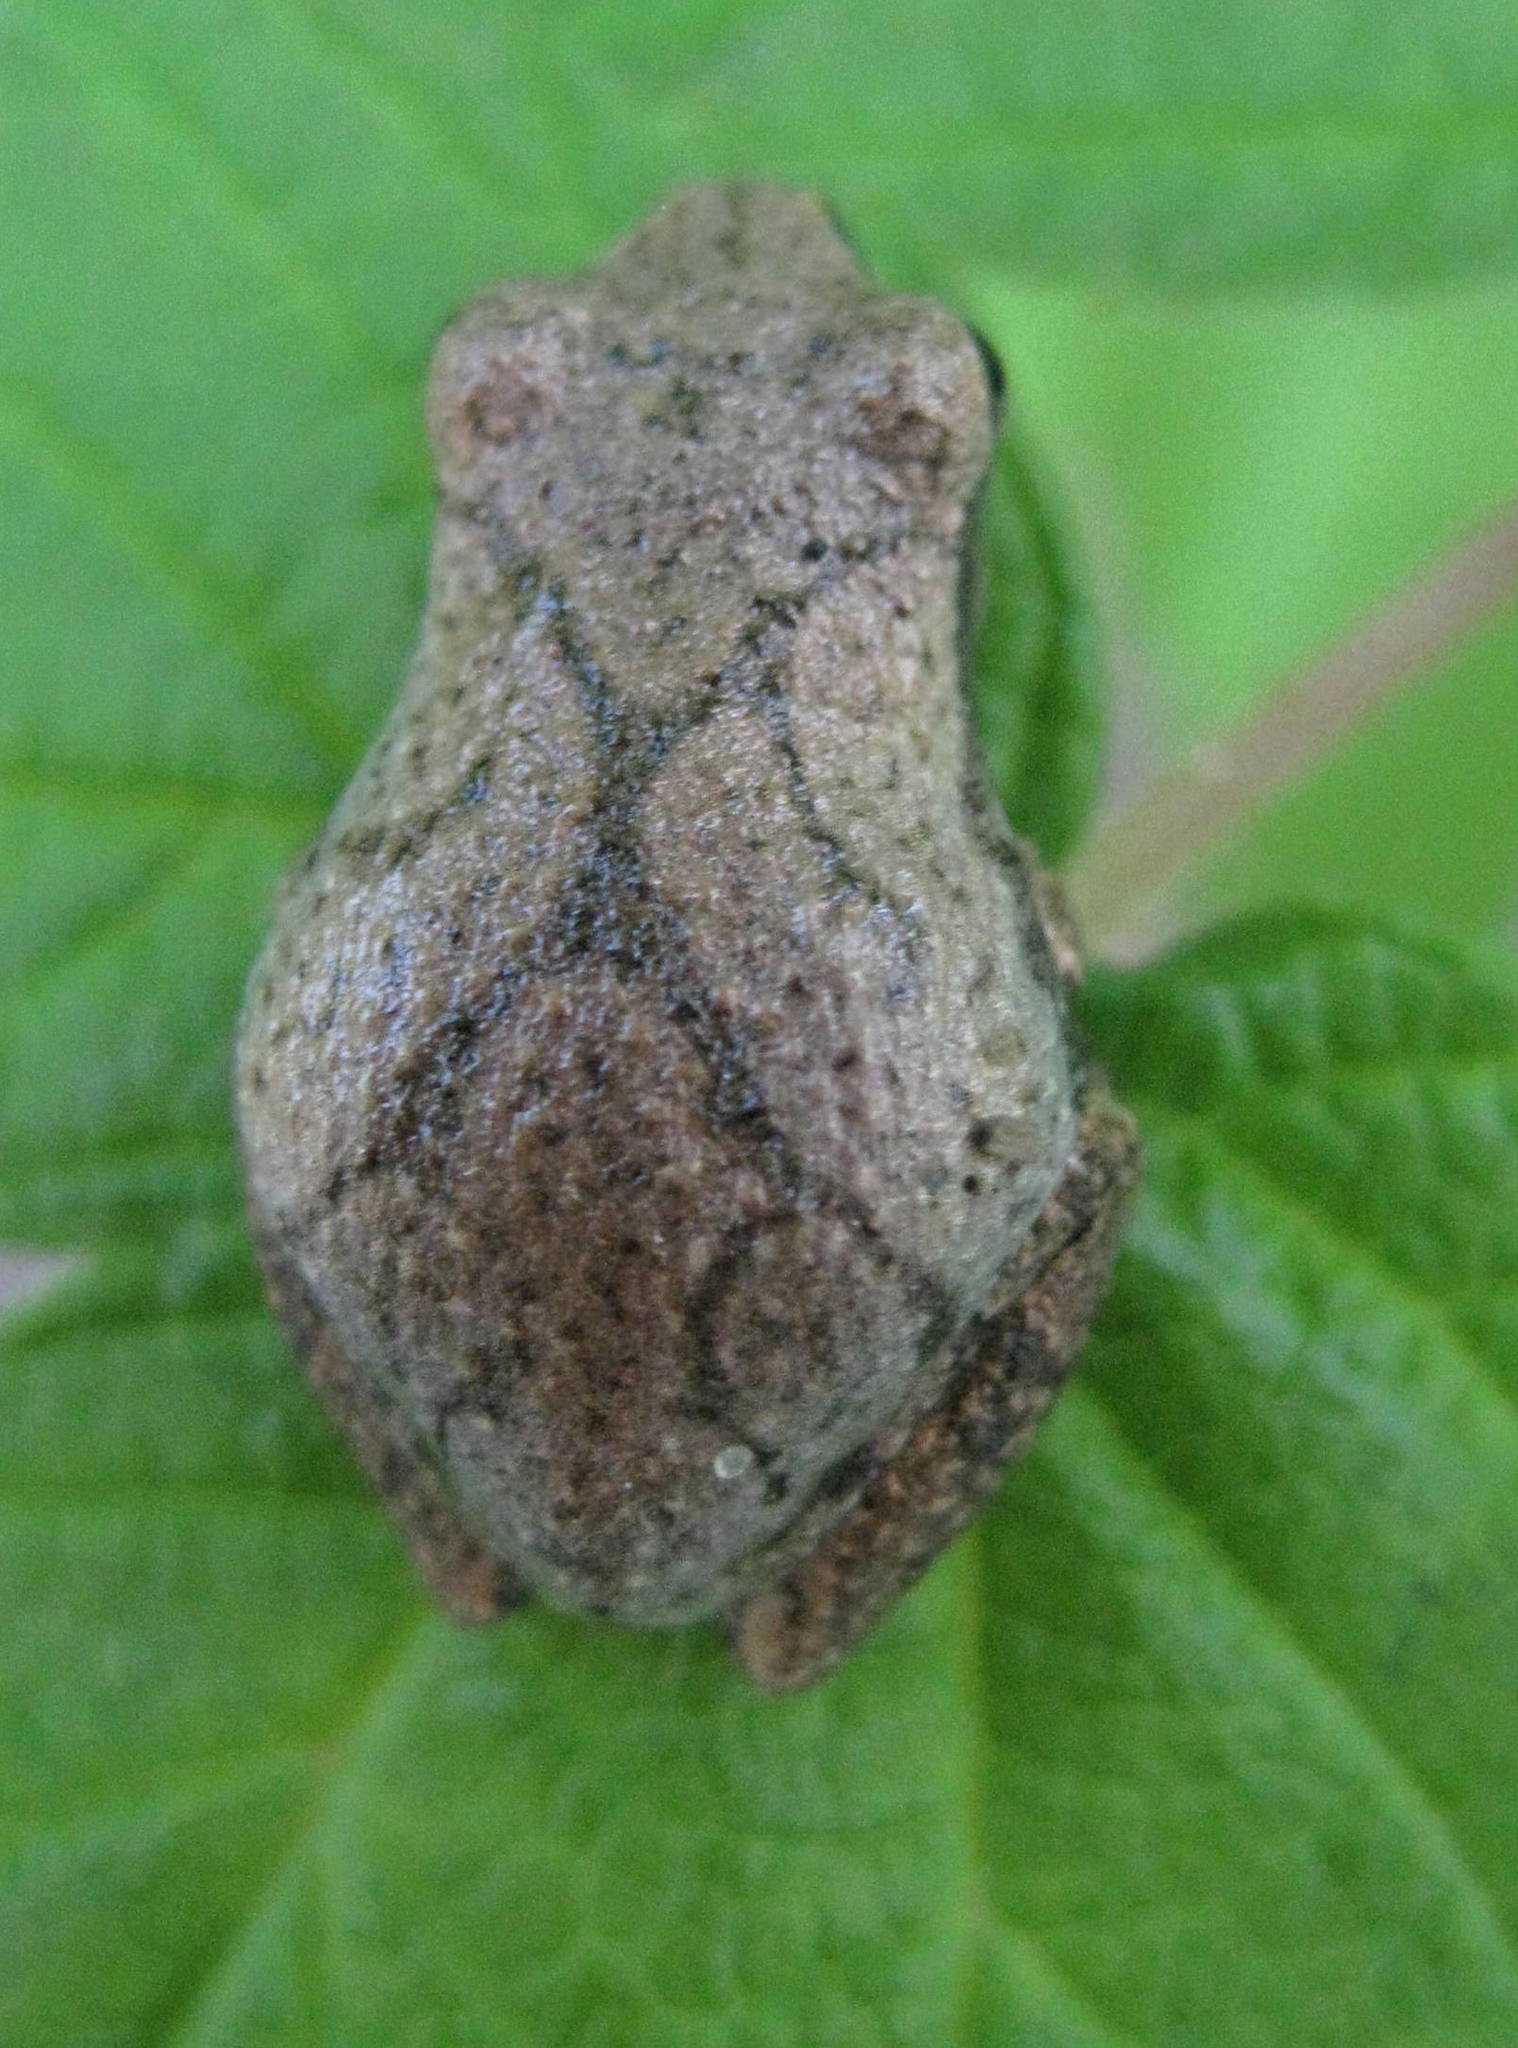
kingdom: Animalia
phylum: Chordata
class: Amphibia
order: Anura
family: Hylidae
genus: Pseudacris
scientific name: Pseudacris crucifer
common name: Spring peeper
